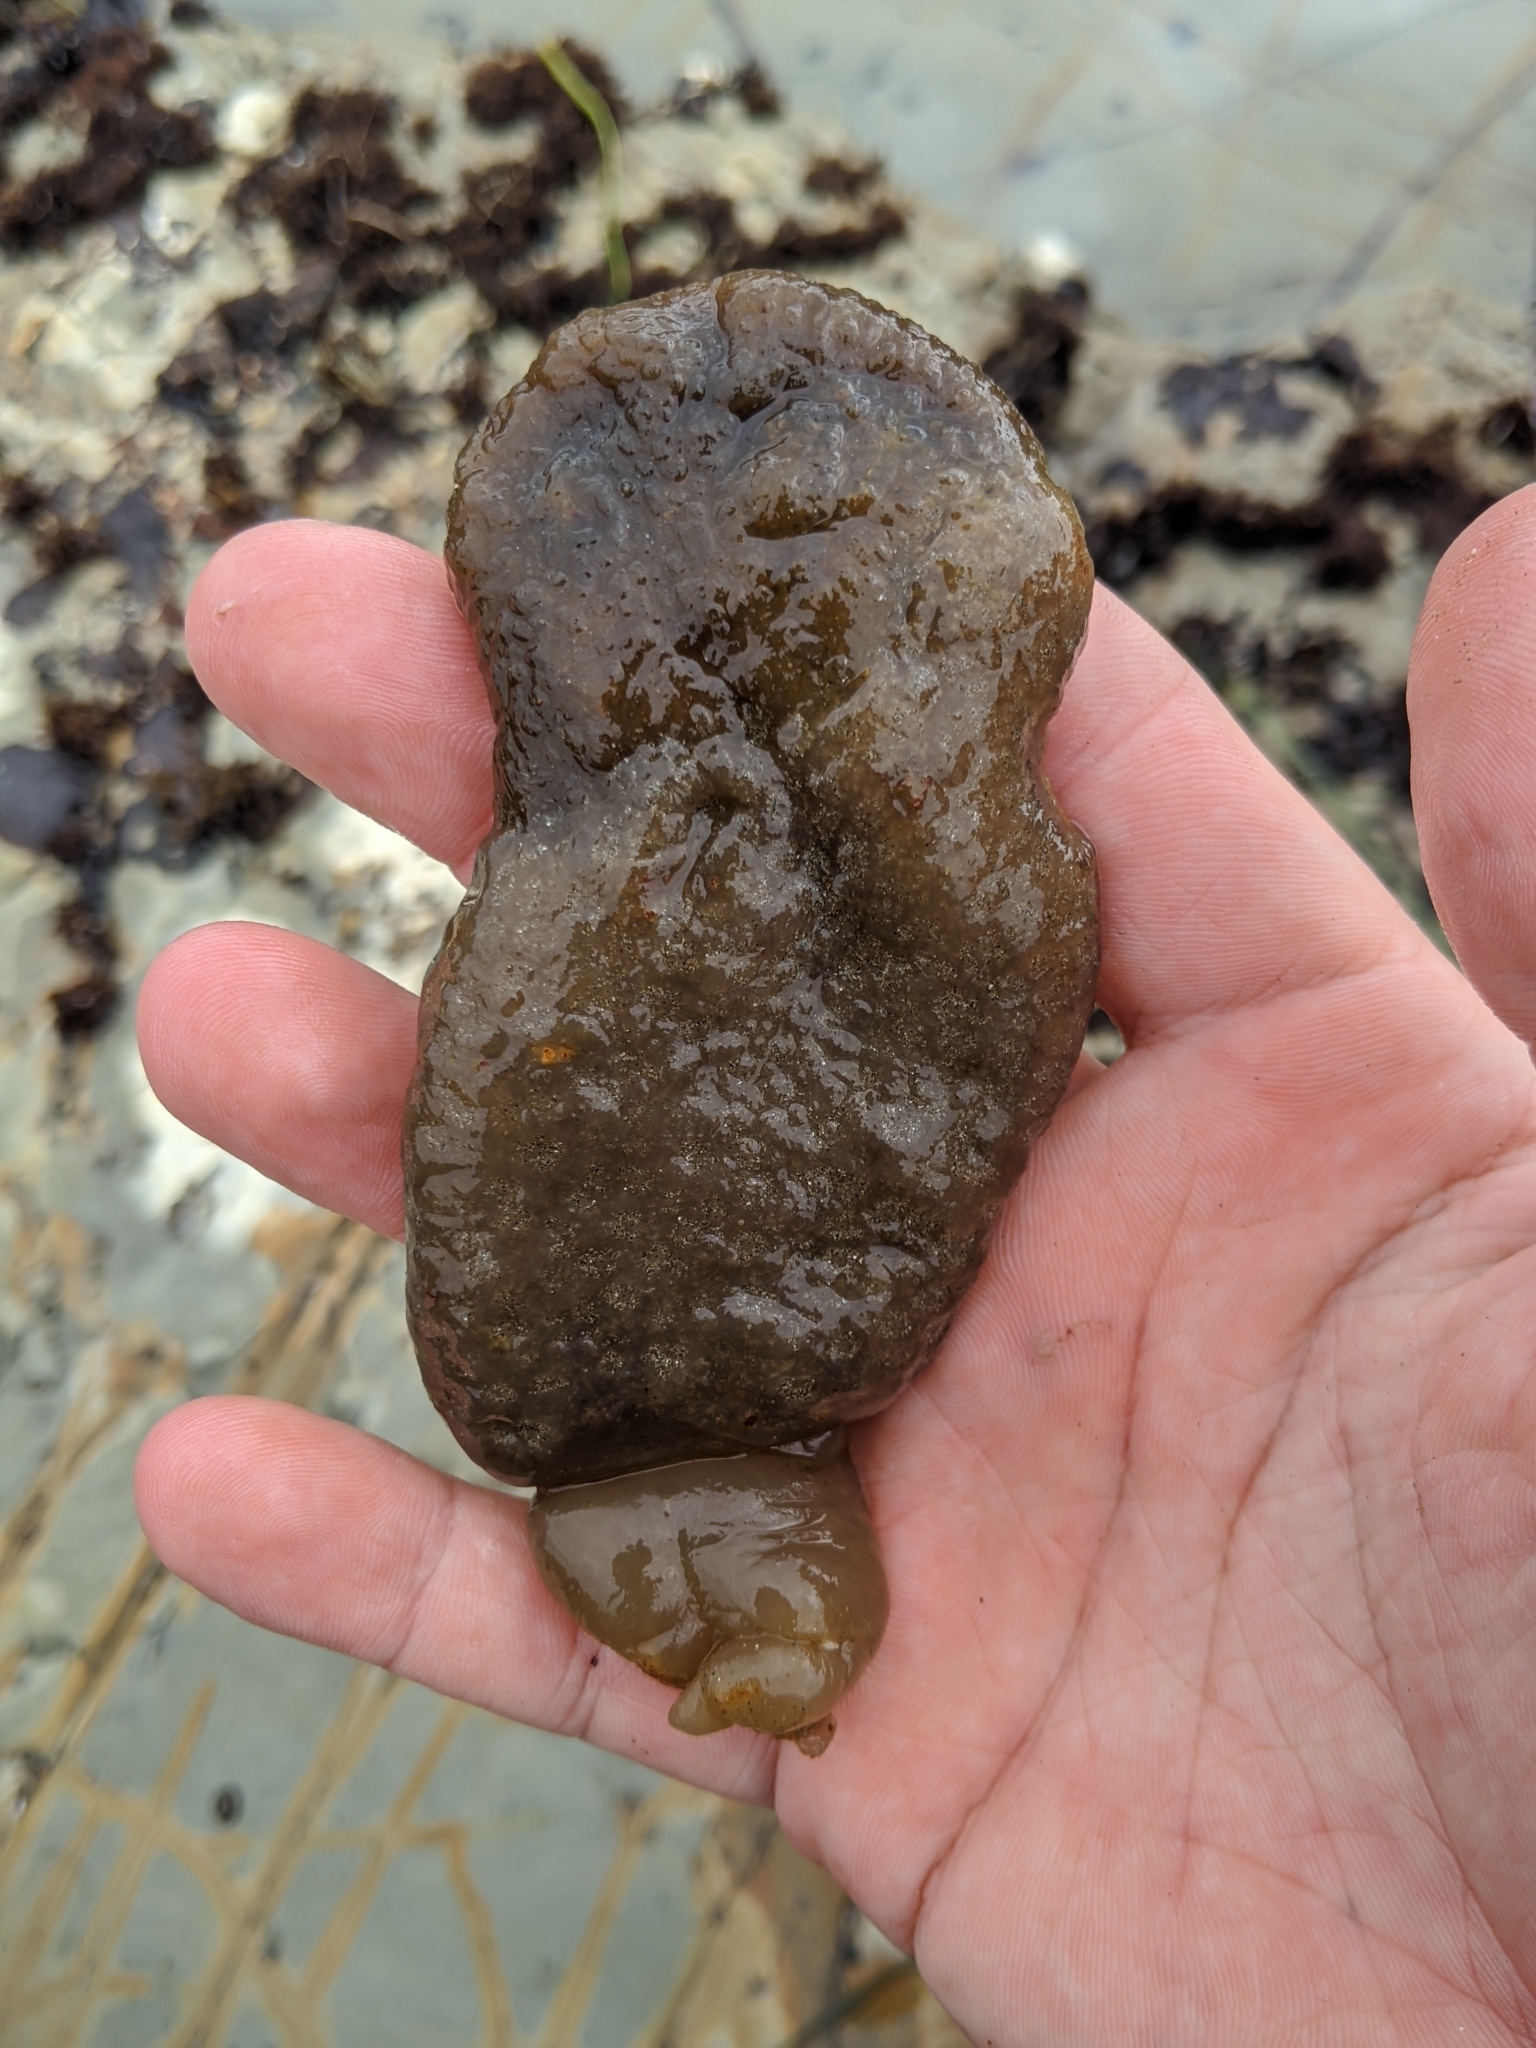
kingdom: Animalia
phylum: Chordata
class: Ascidiacea
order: Aplousobranchia
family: Polyclinidae
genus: Polyclinum
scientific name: Polyclinum planum
